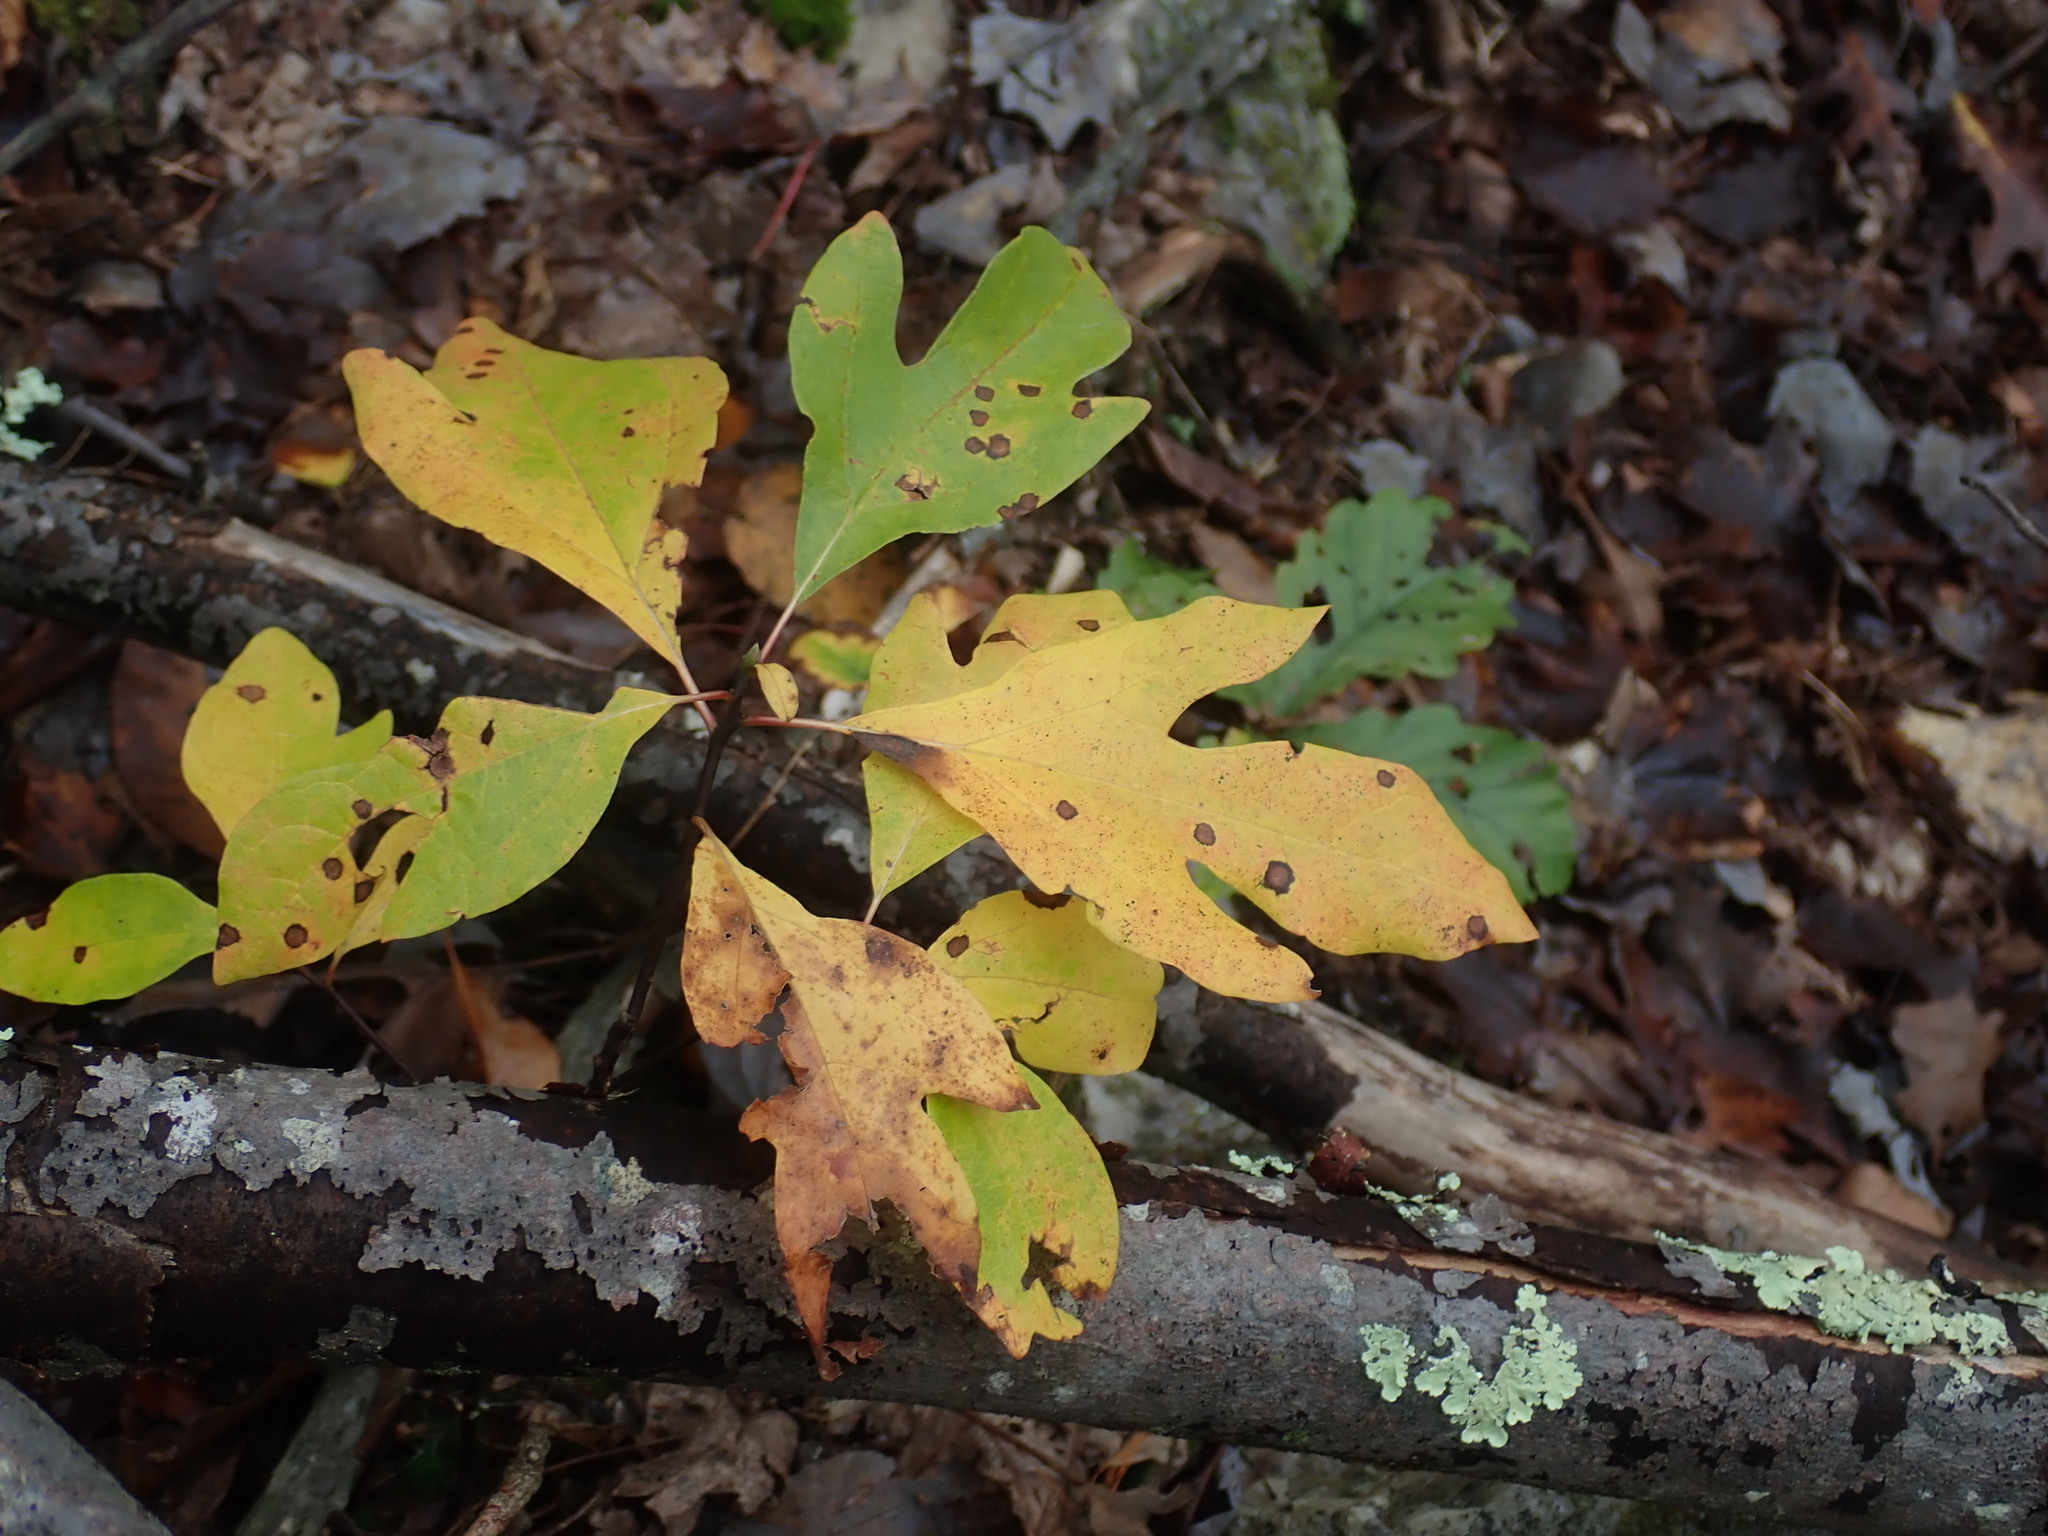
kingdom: Plantae
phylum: Tracheophyta
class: Magnoliopsida
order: Laurales
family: Lauraceae
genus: Sassafras
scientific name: Sassafras albidum
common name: Sassafras
